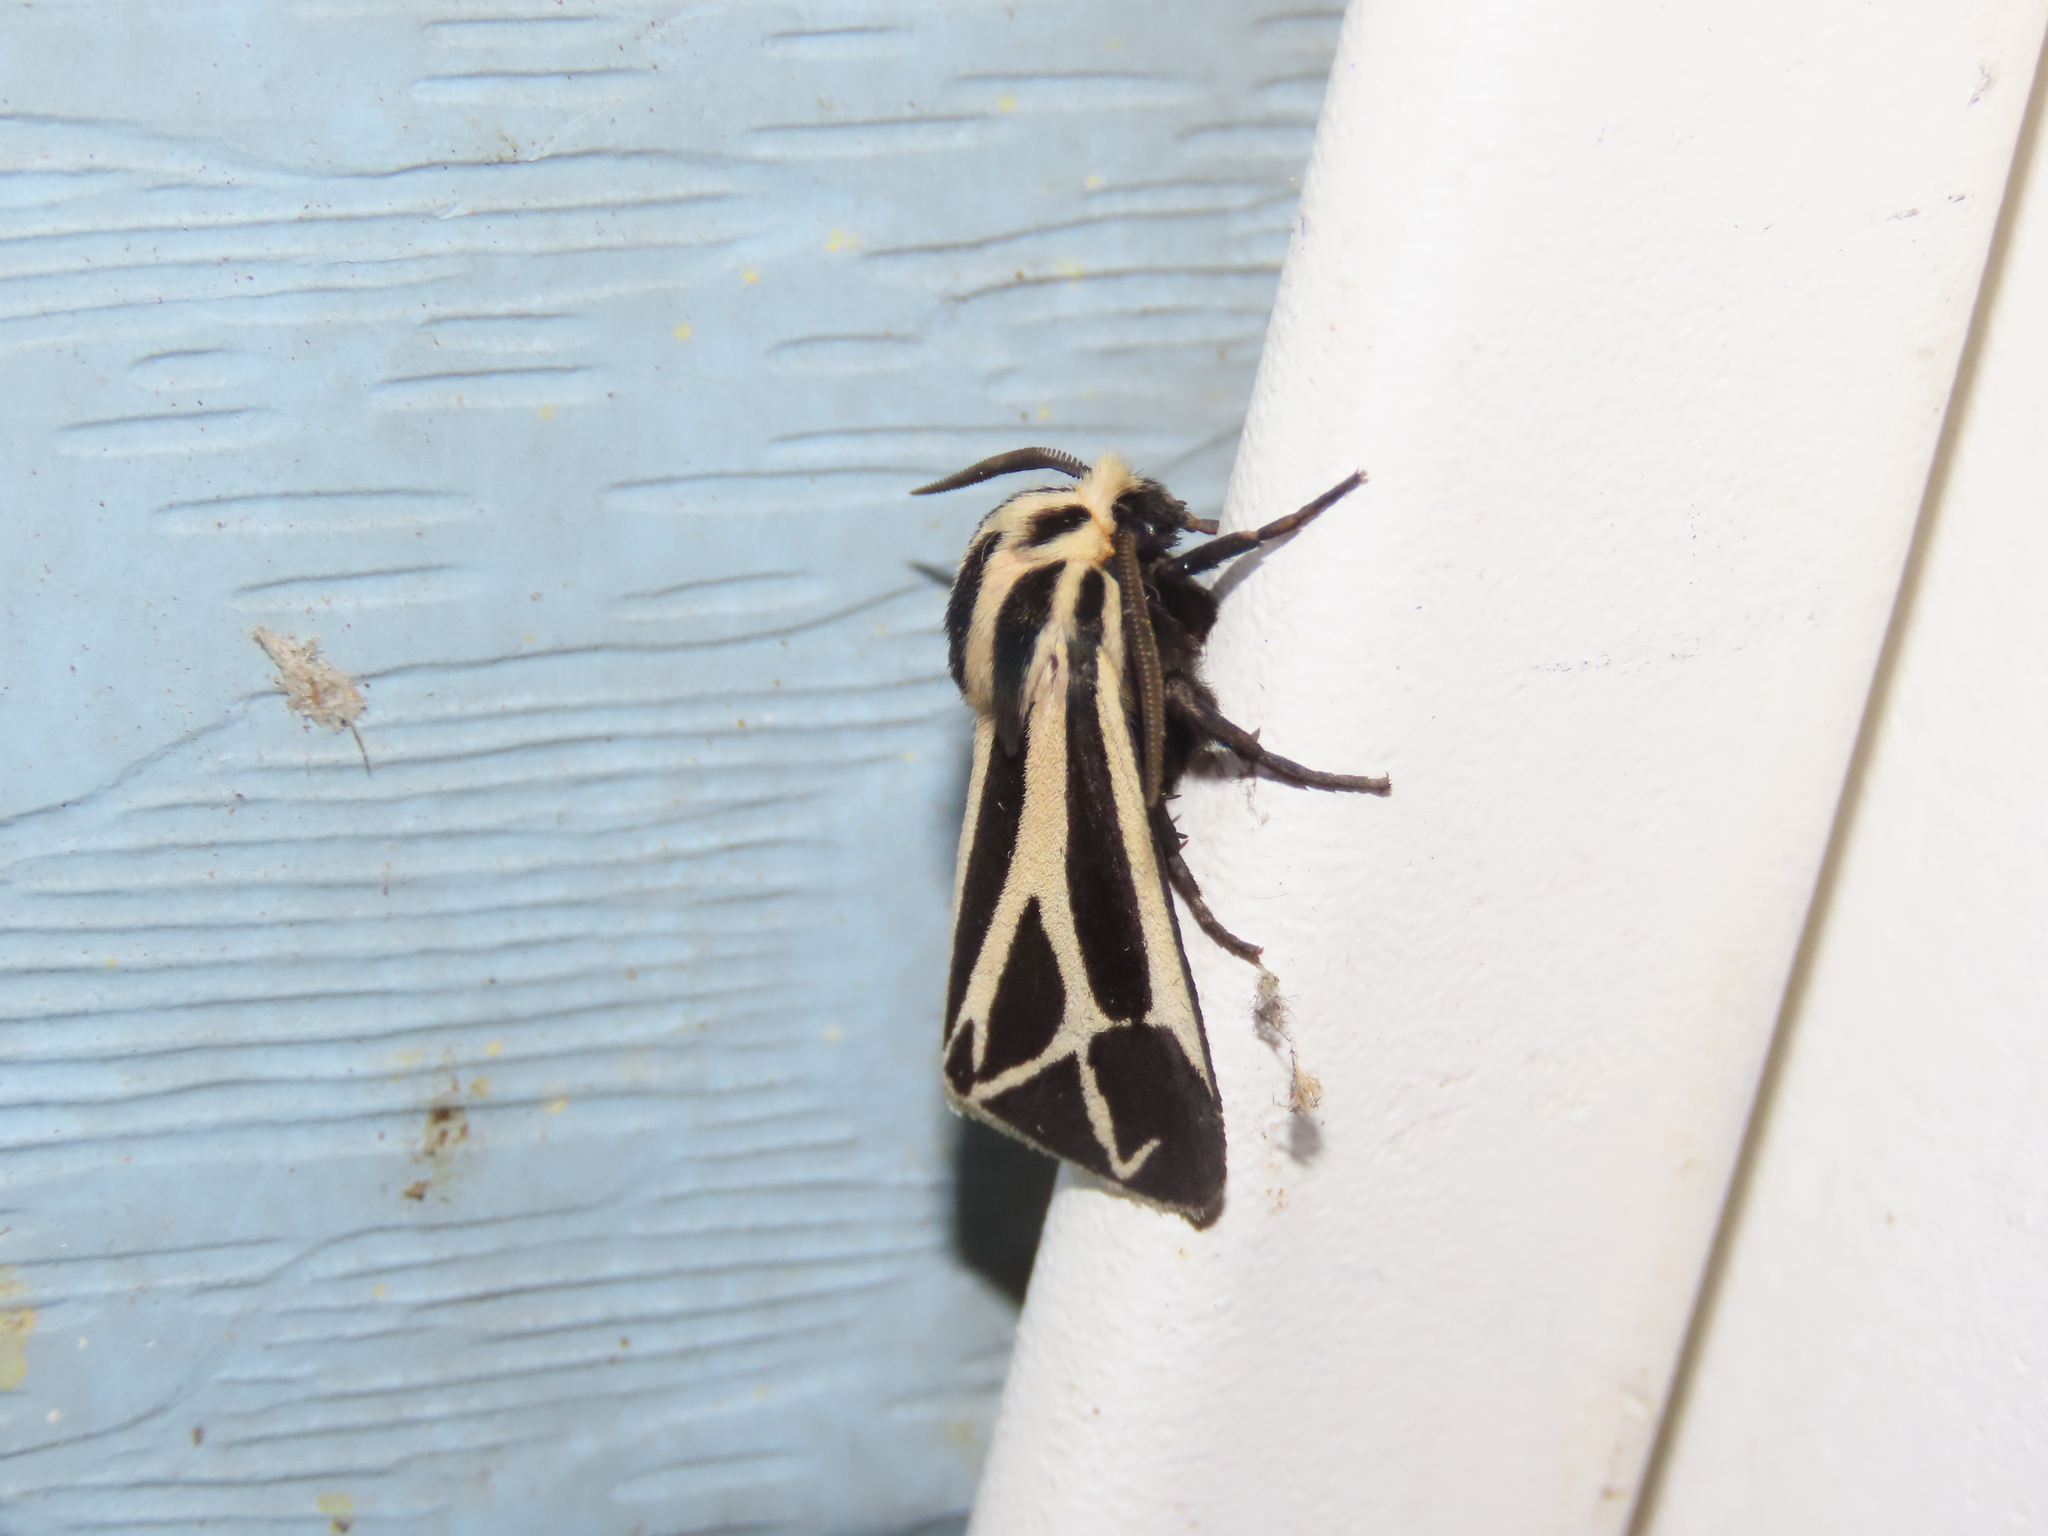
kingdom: Animalia
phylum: Arthropoda
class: Insecta
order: Lepidoptera
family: Erebidae
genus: Apantesis
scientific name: Apantesis phalerata
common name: Harnessed tiger moth
